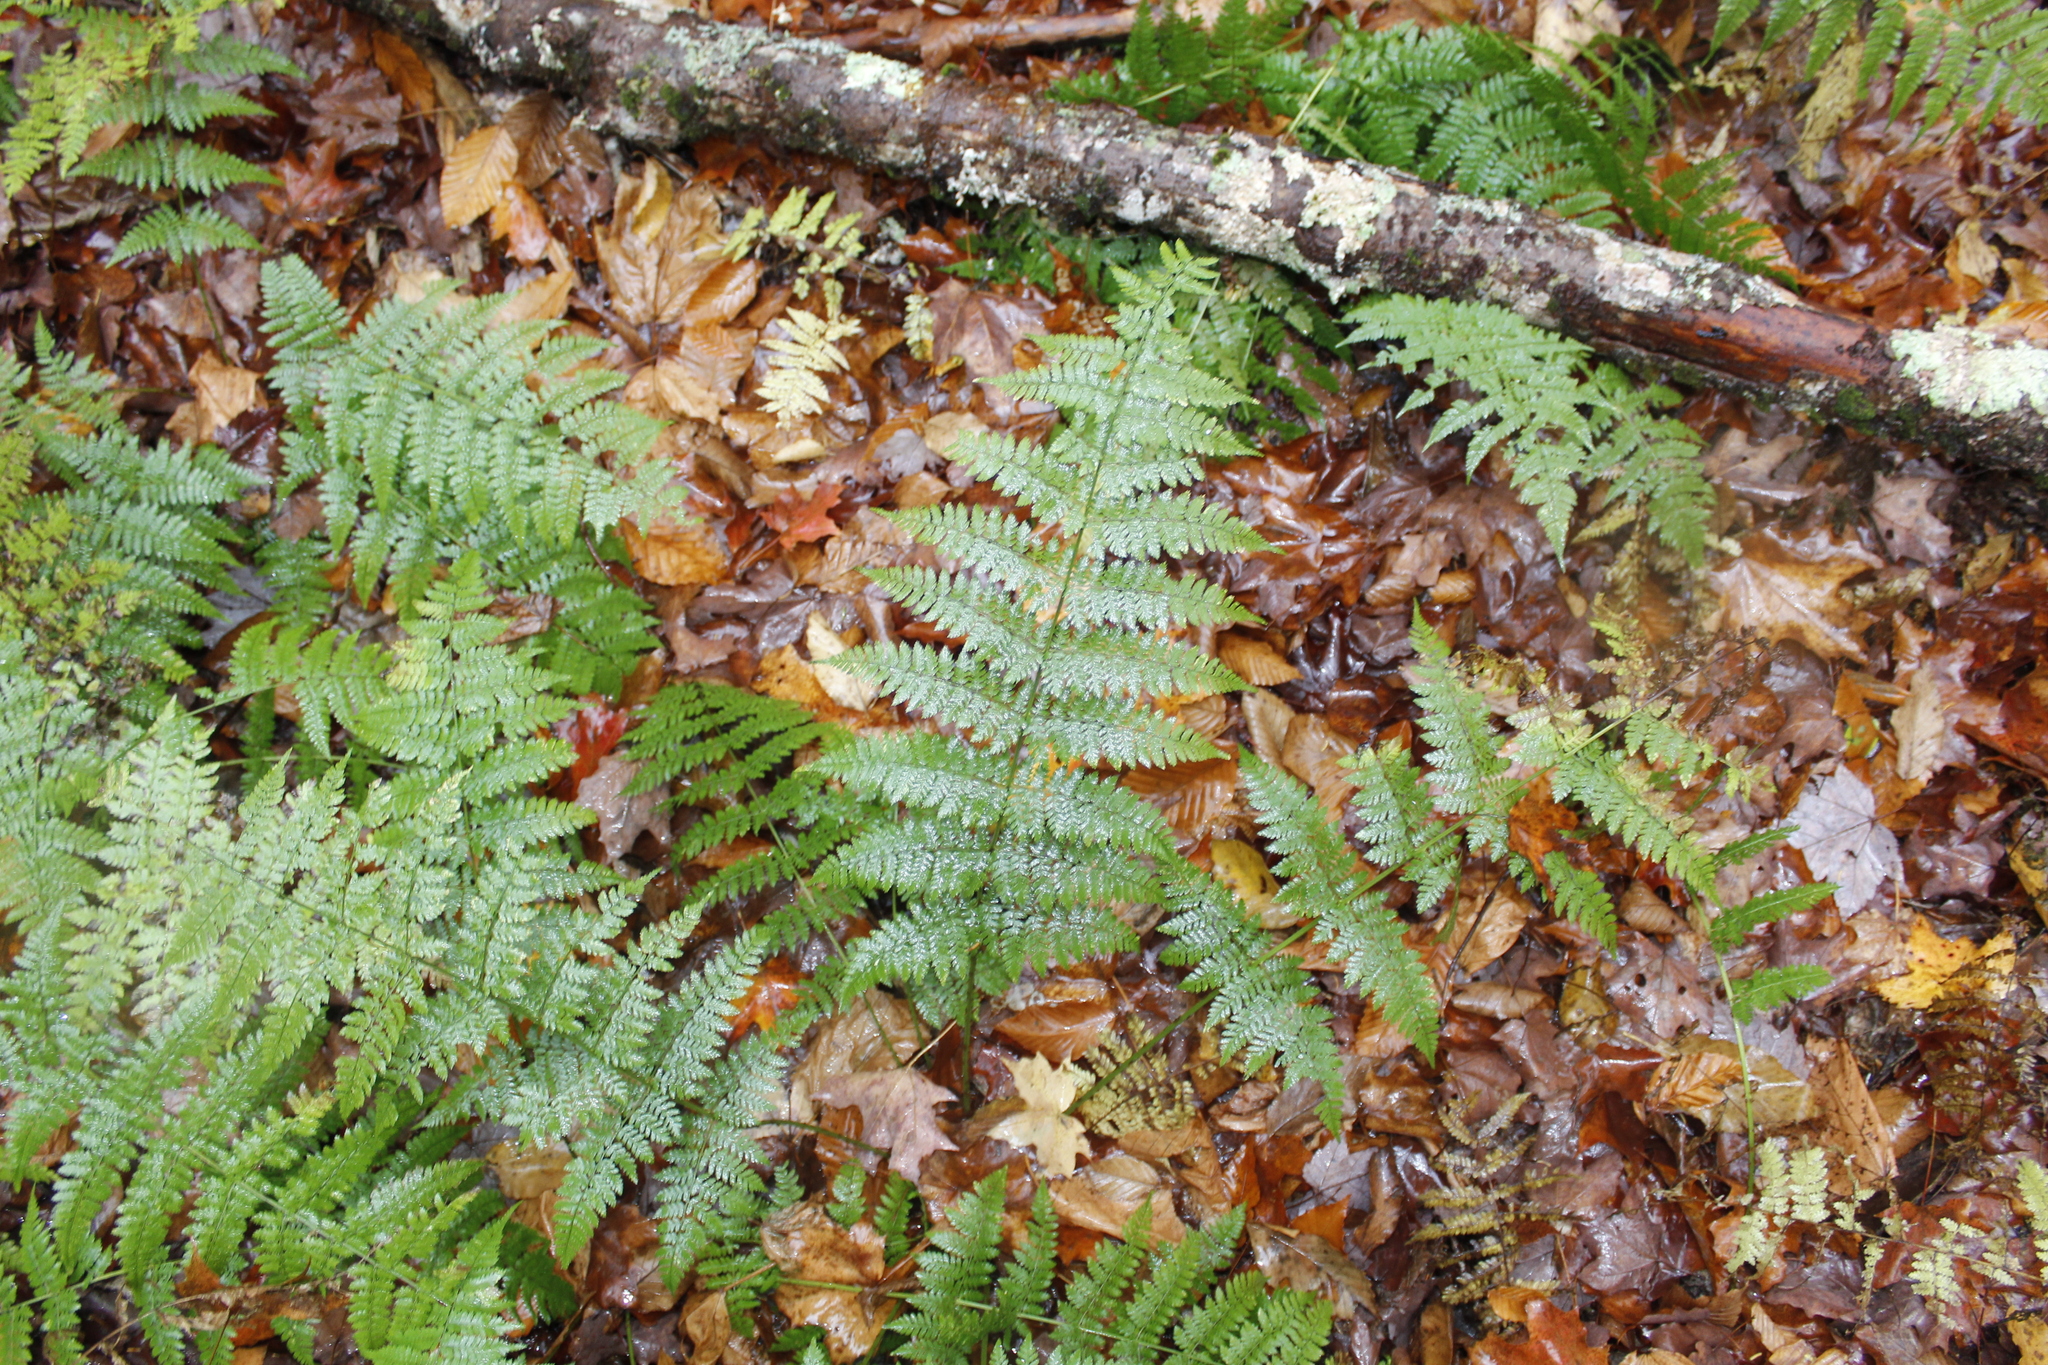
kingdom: Plantae
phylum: Tracheophyta
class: Polypodiopsida
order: Polypodiales
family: Dryopteridaceae
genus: Dryopteris
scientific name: Dryopteris intermedia
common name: Evergreen wood fern
